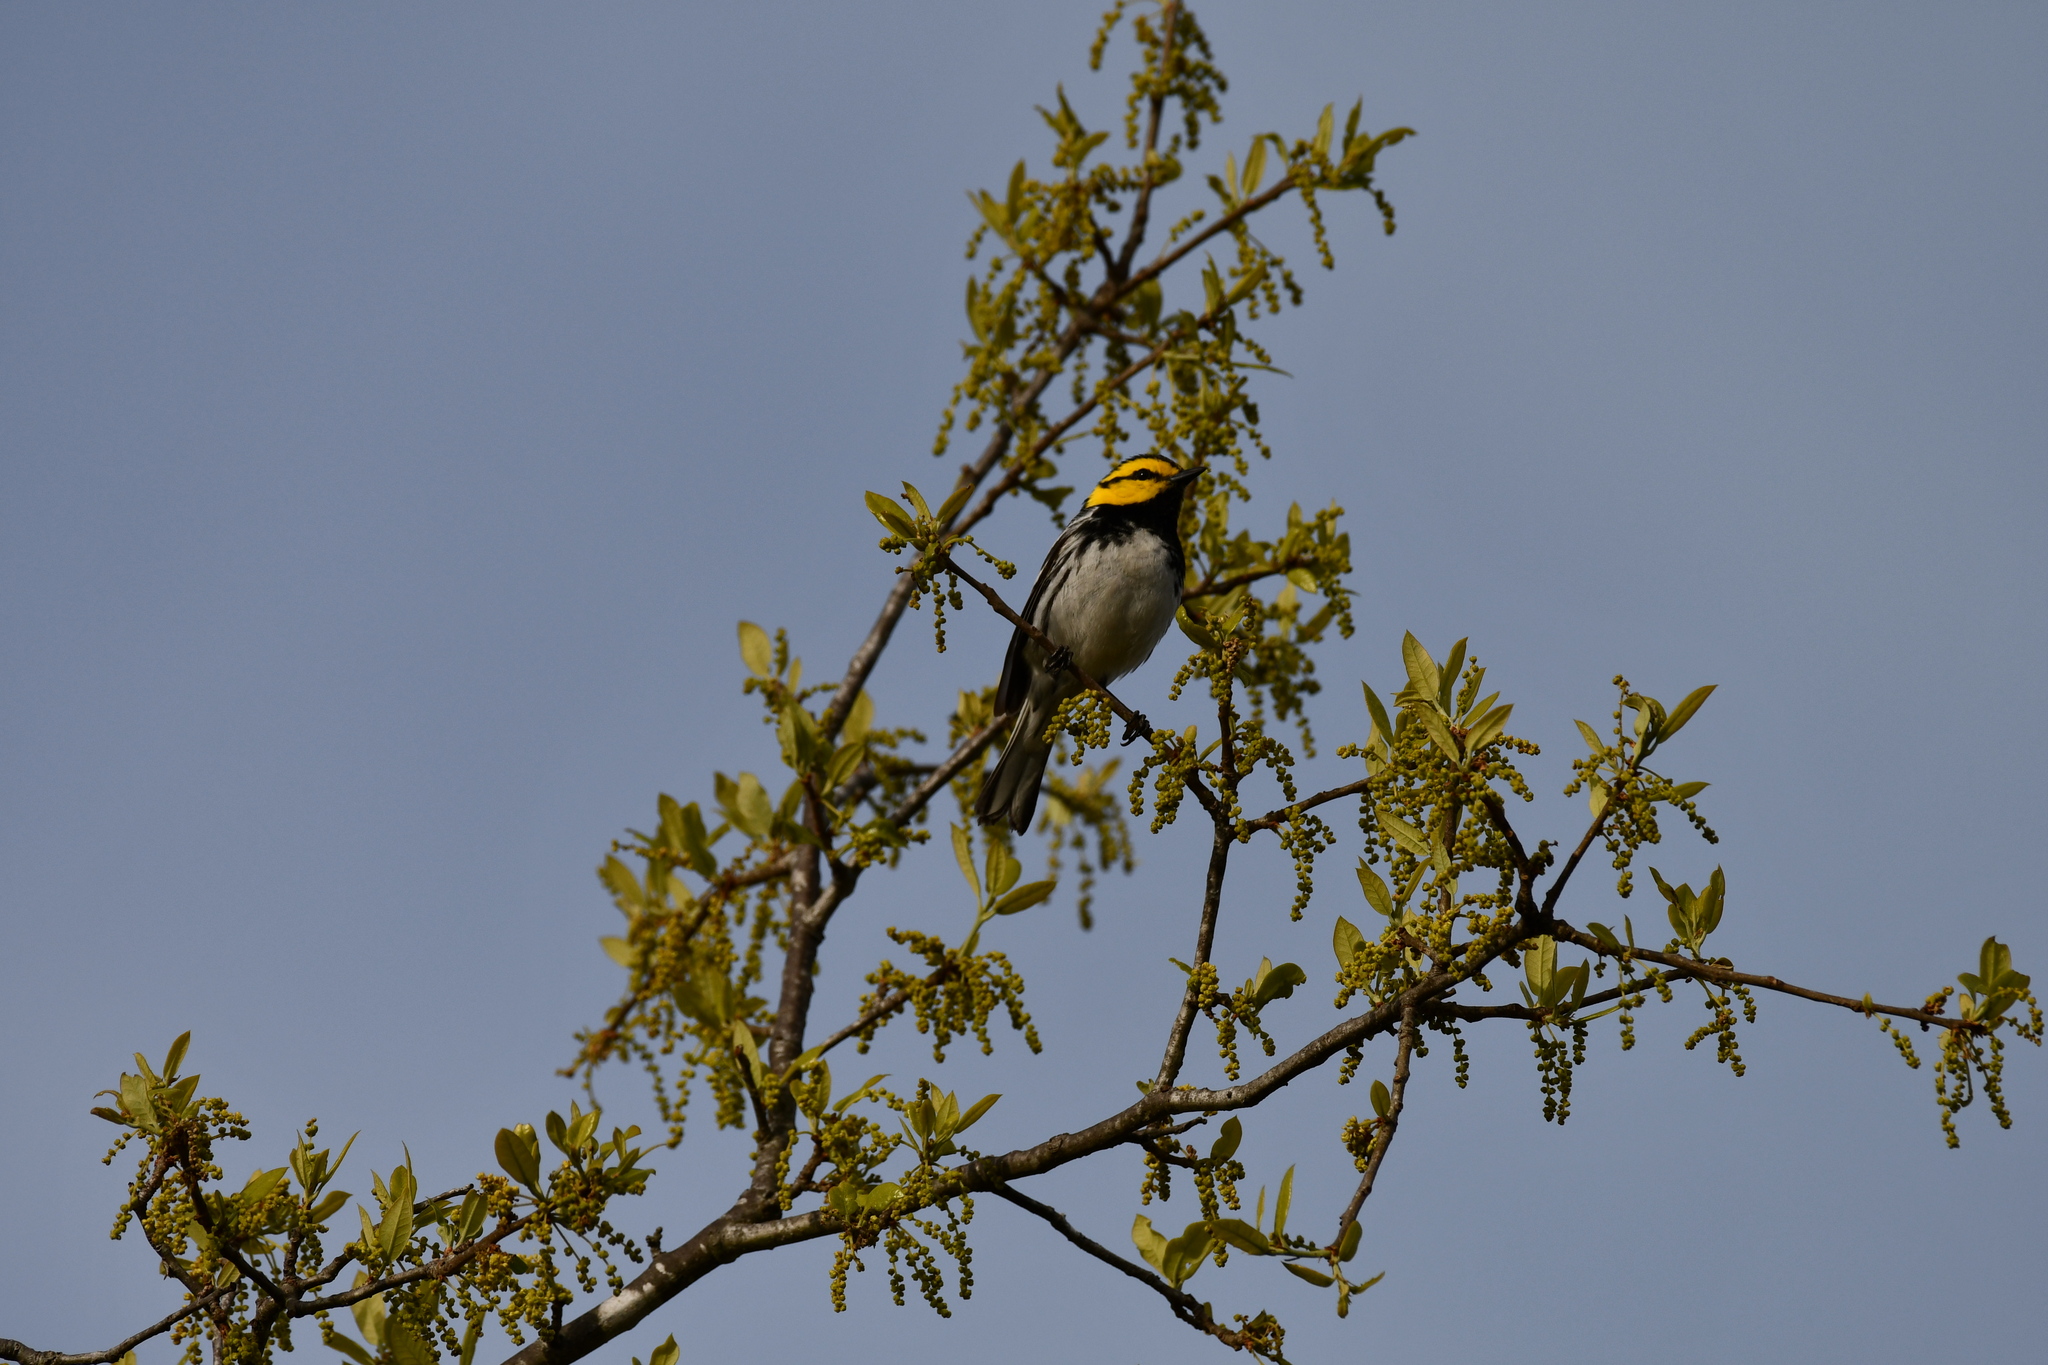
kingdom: Animalia
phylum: Chordata
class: Aves
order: Passeriformes
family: Parulidae
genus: Setophaga
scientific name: Setophaga chrysoparia
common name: Golden-cheeked warbler
